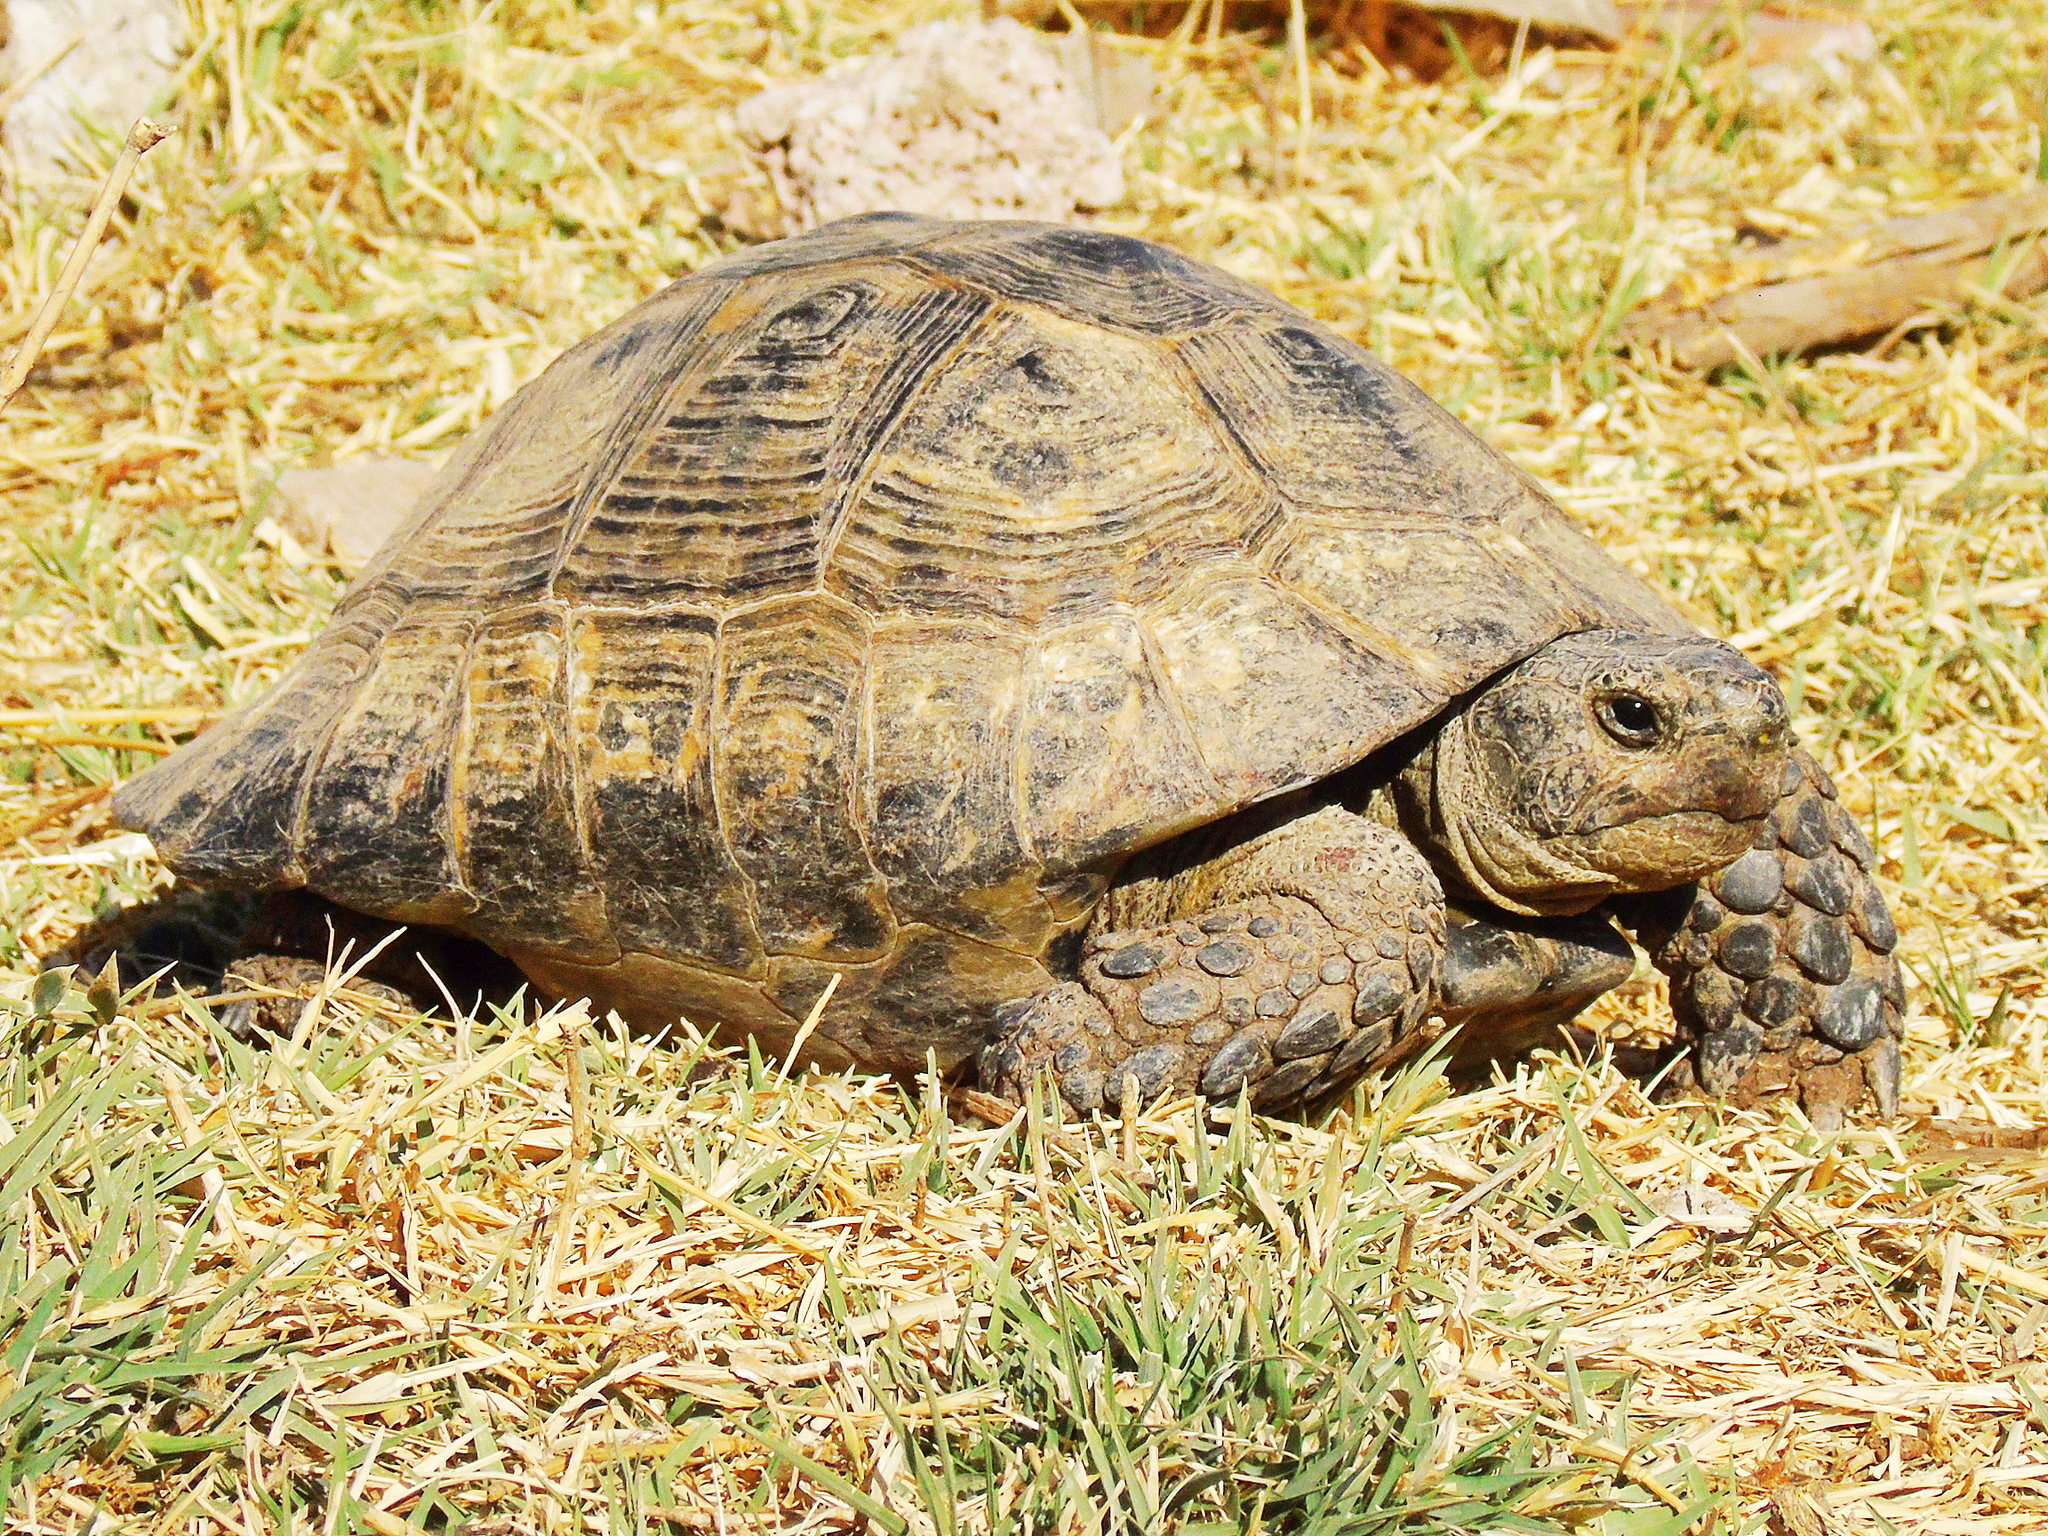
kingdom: Animalia
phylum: Chordata
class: Testudines
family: Testudinidae
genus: Testudo
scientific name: Testudo graeca
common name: Common tortoise
